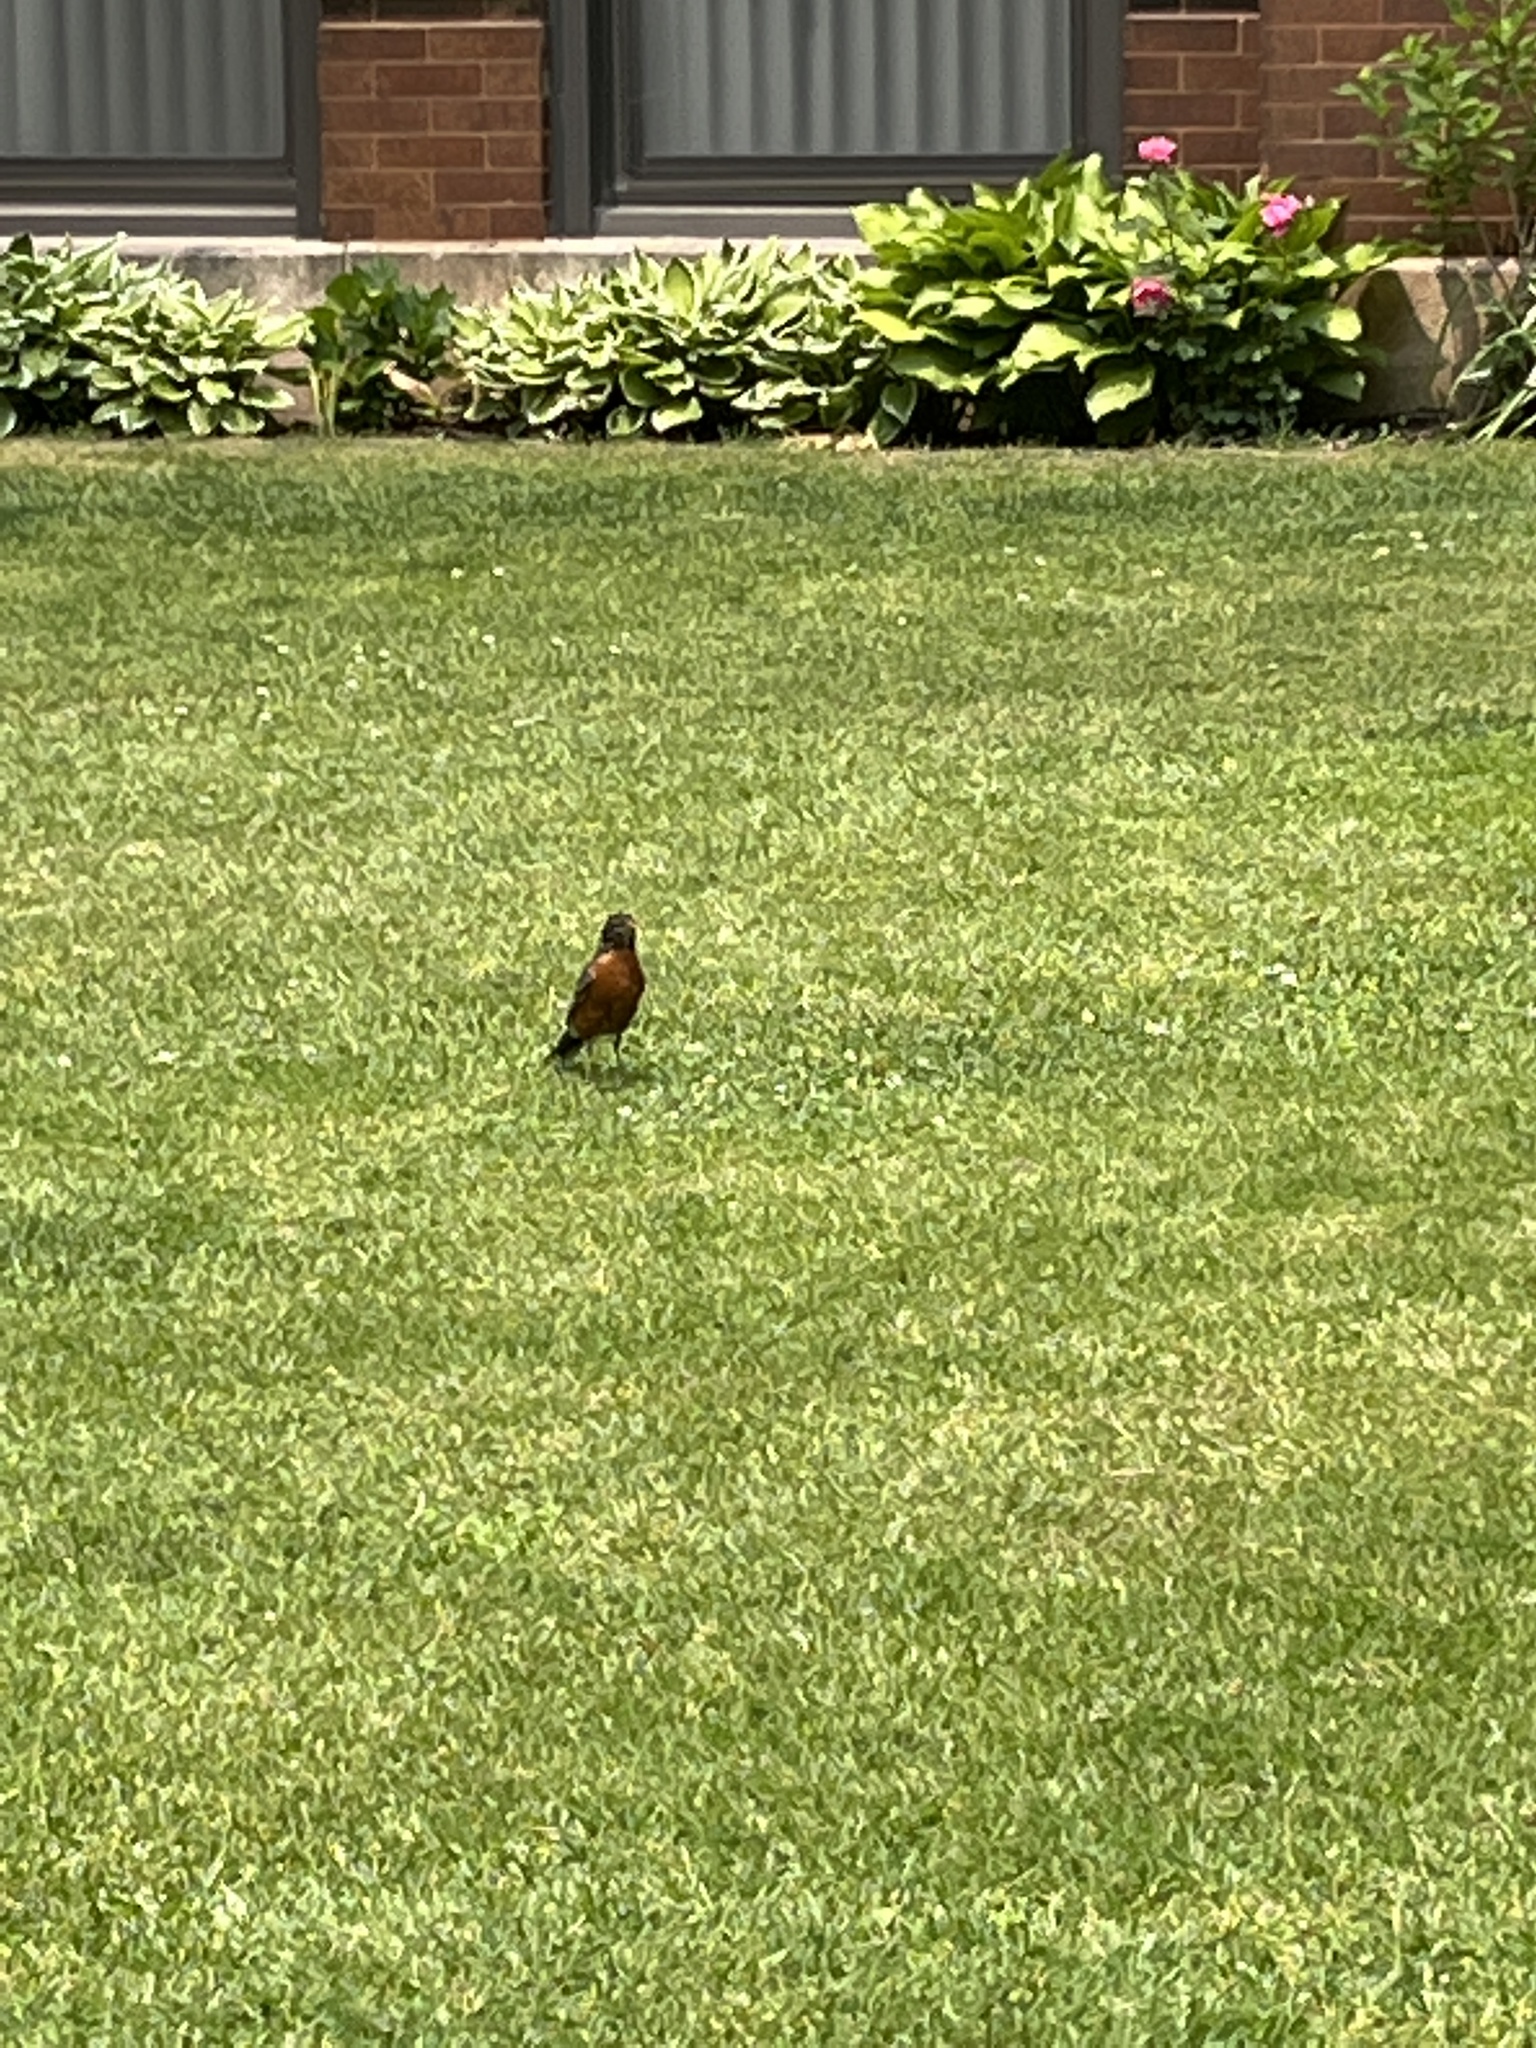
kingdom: Animalia
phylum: Chordata
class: Aves
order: Passeriformes
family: Turdidae
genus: Turdus
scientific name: Turdus migratorius
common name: American robin
